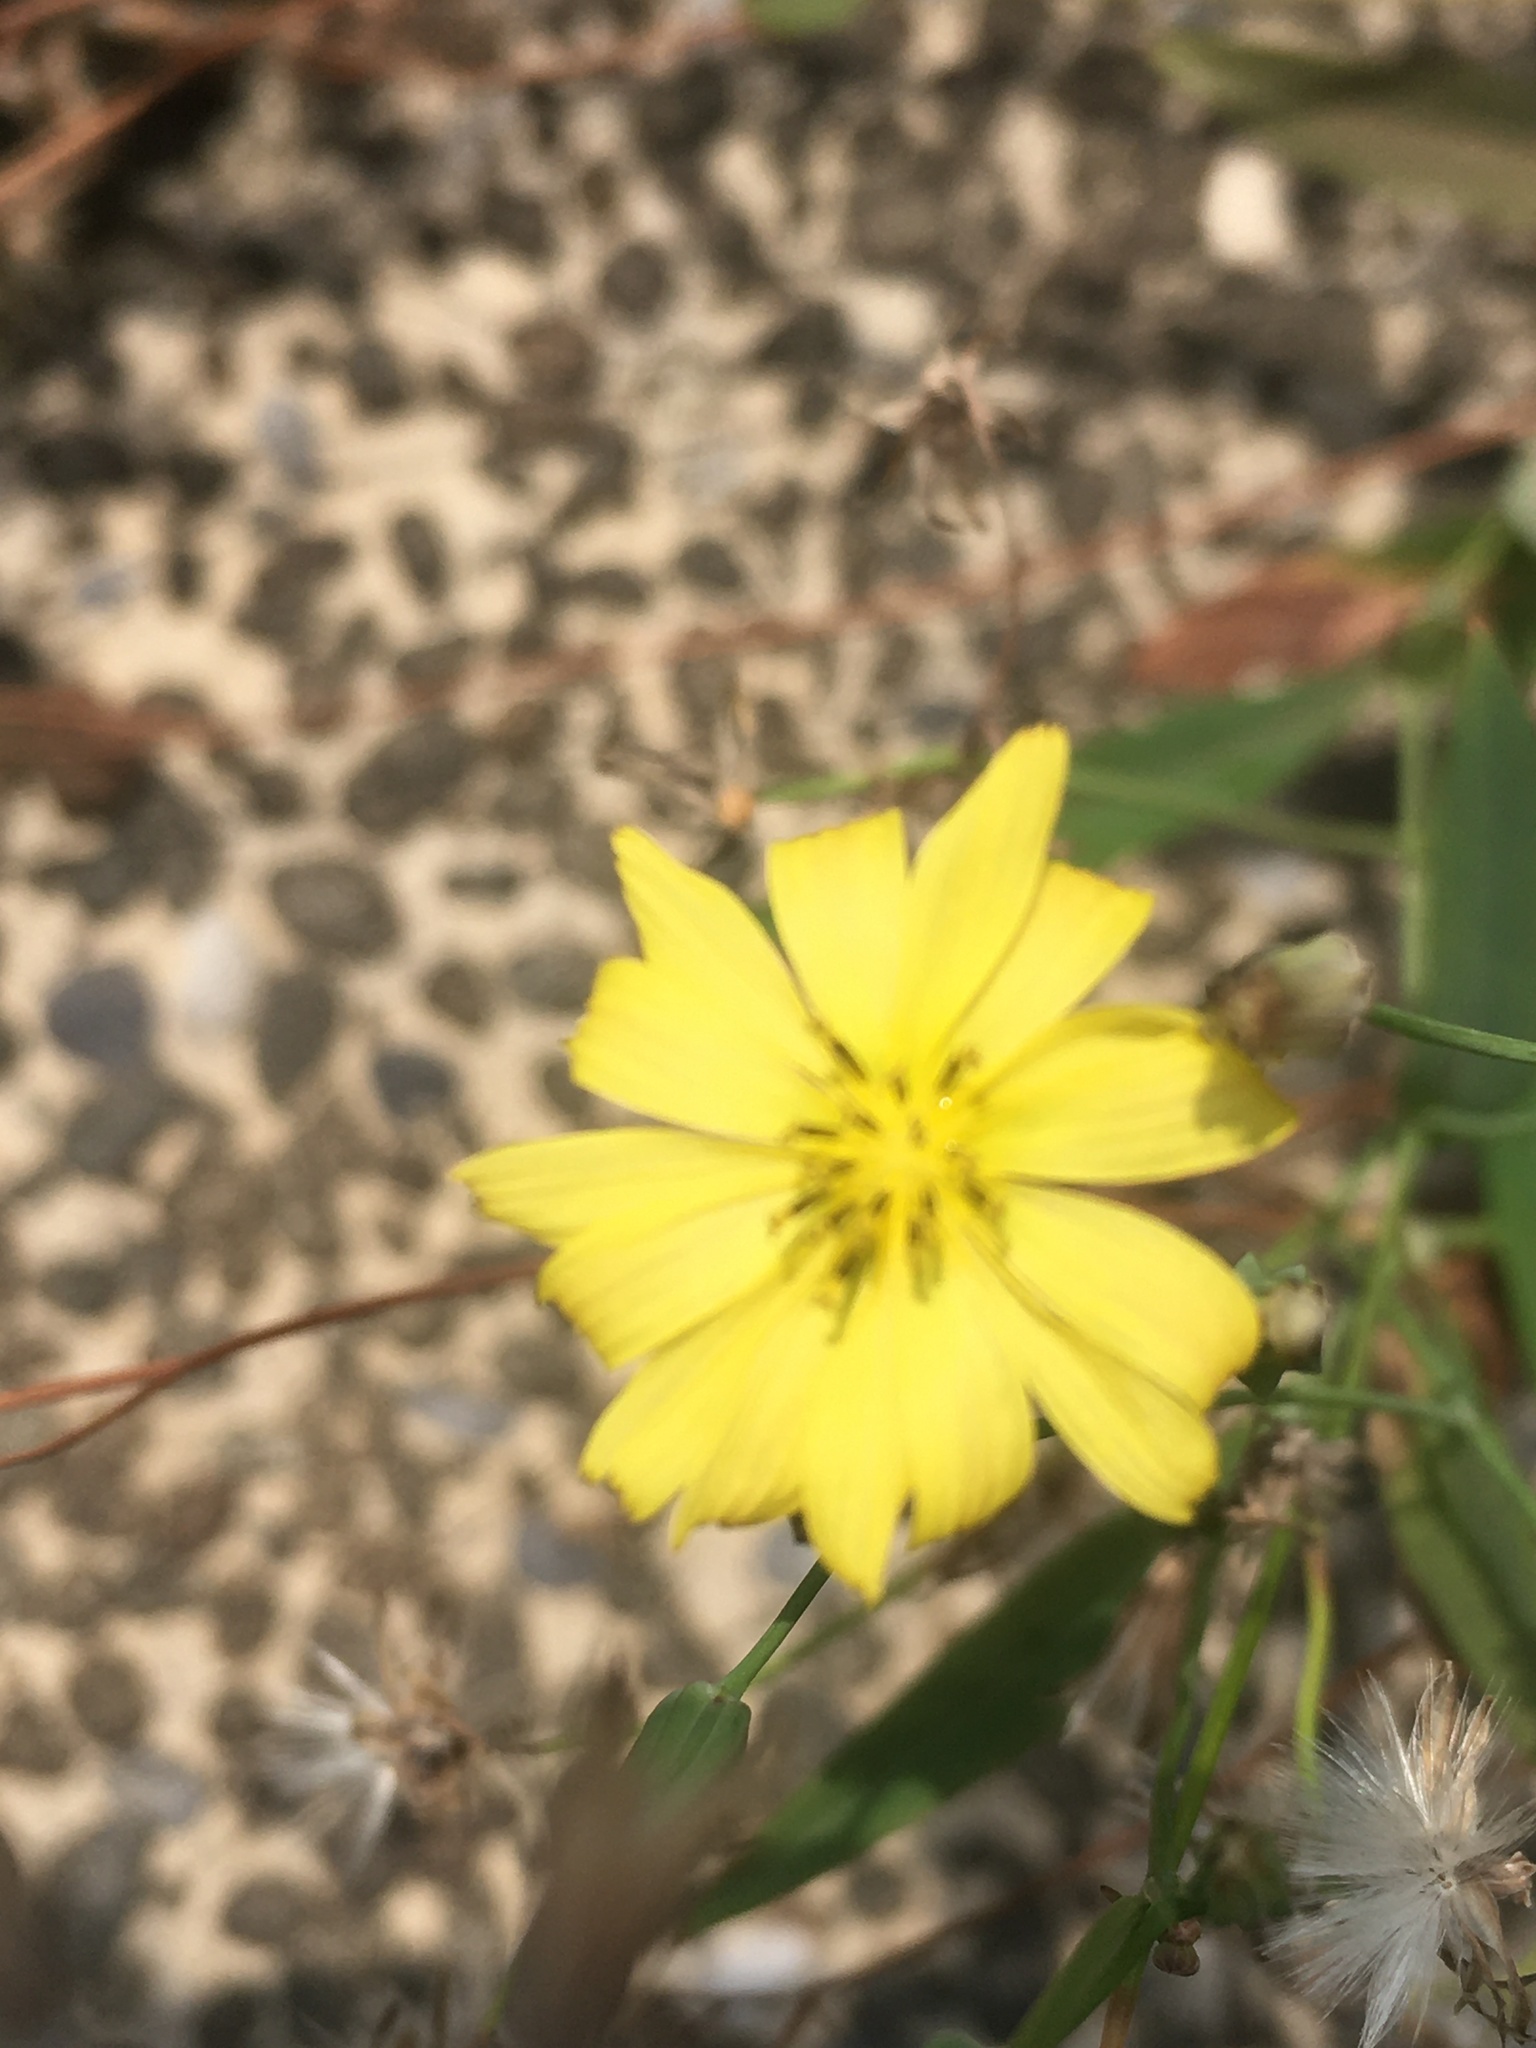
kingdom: Plantae
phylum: Tracheophyta
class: Magnoliopsida
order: Asterales
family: Asteraceae
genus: Ixeris
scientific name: Ixeris chinensis
